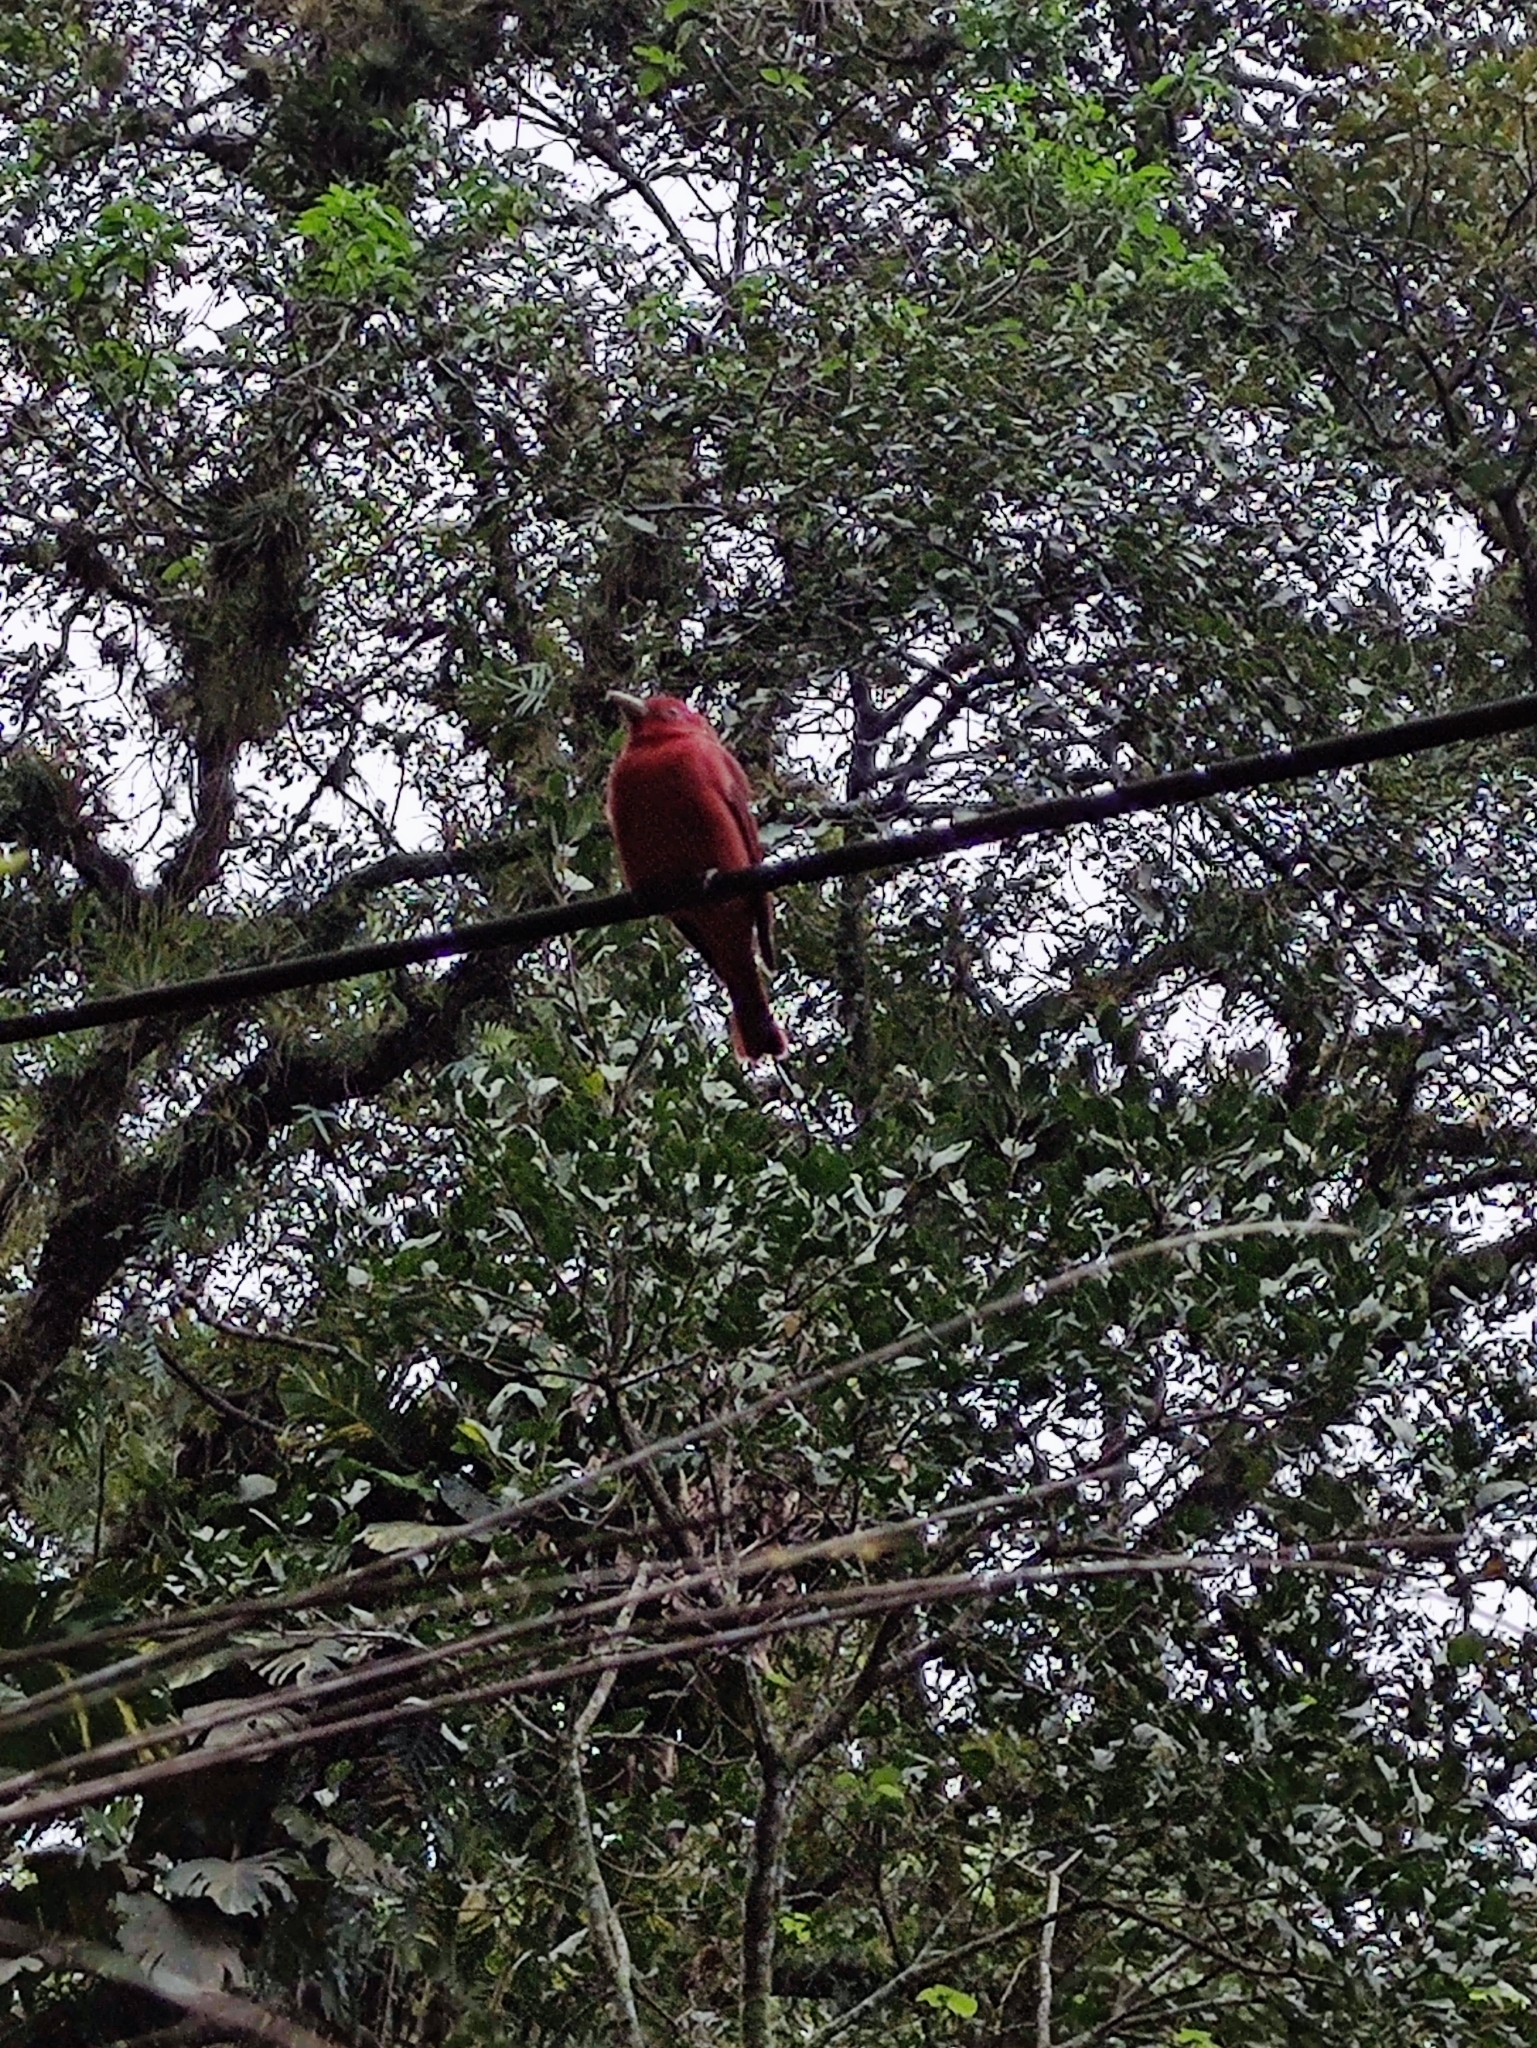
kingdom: Animalia
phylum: Chordata
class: Aves
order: Passeriformes
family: Cardinalidae
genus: Piranga
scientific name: Piranga rubra
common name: Summer tanager
